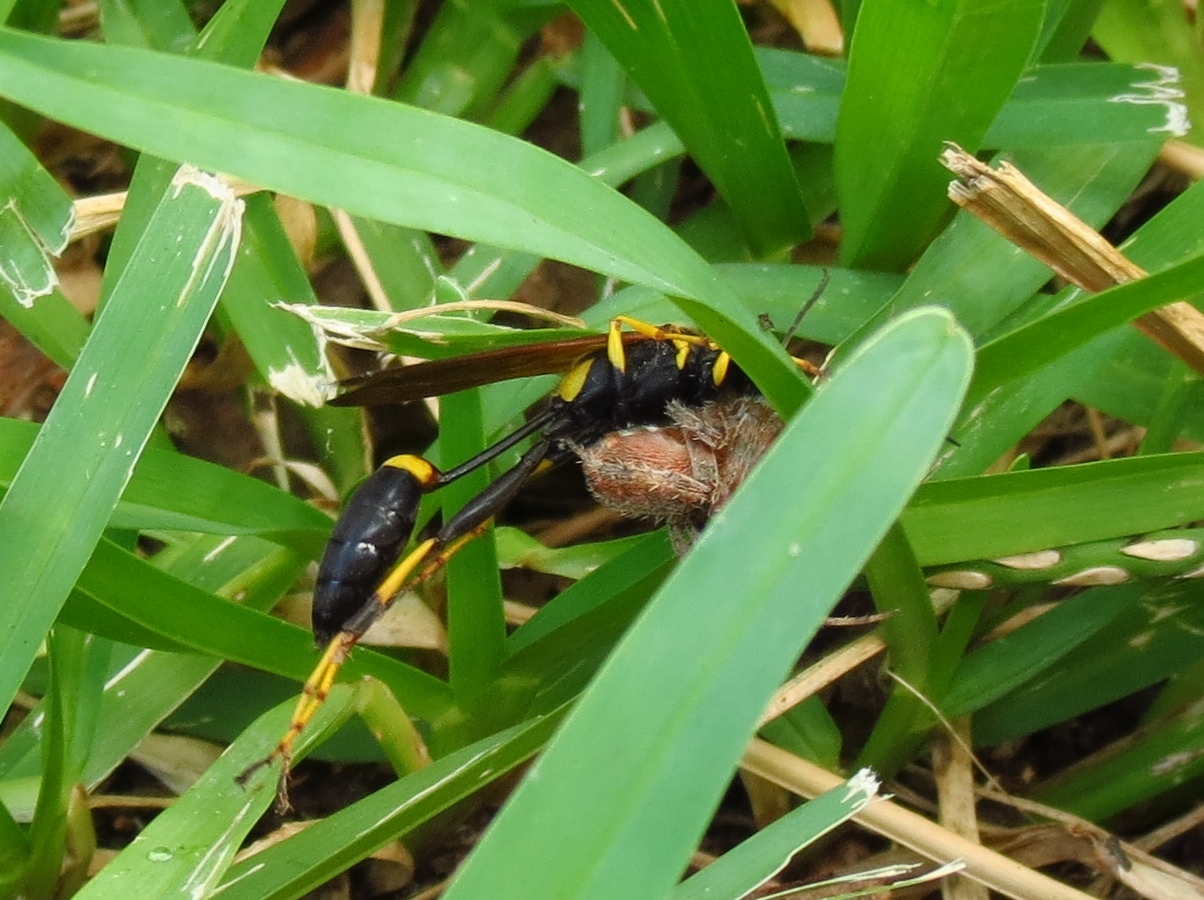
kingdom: Animalia
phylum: Arthropoda
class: Insecta
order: Hymenoptera
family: Sphecidae
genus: Sceliphron
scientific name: Sceliphron caementarium
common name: Mud dauber
